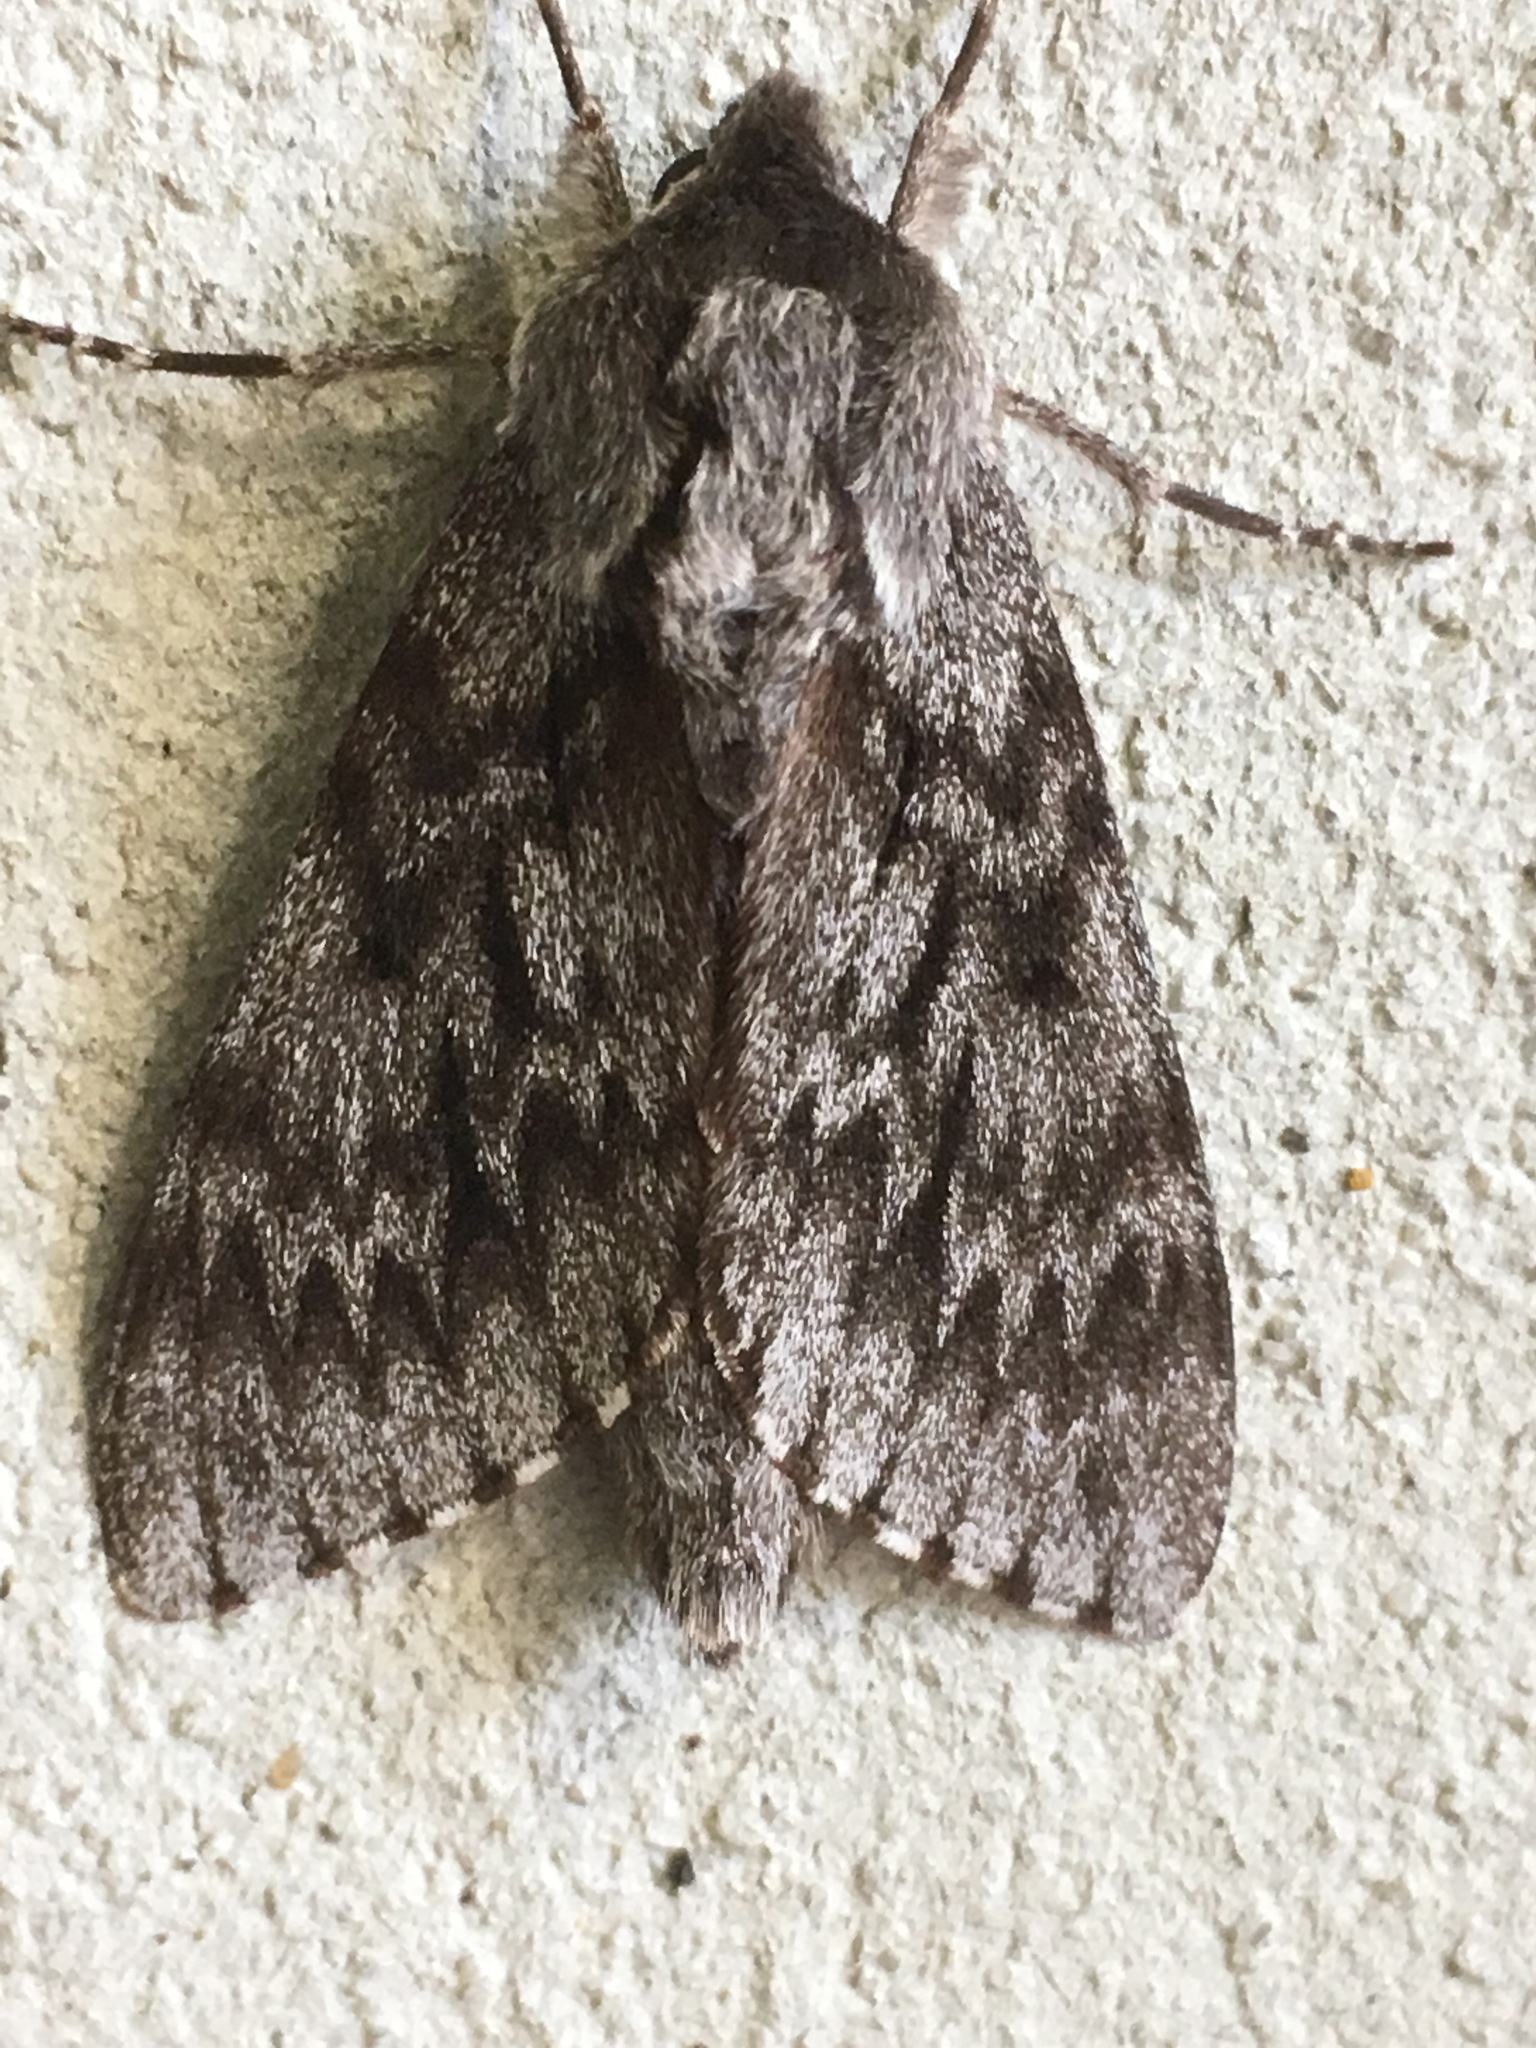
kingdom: Animalia
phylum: Arthropoda
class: Insecta
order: Lepidoptera
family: Sphingidae
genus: Lapara
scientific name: Lapara bombycoides
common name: Northern pine sphinx
